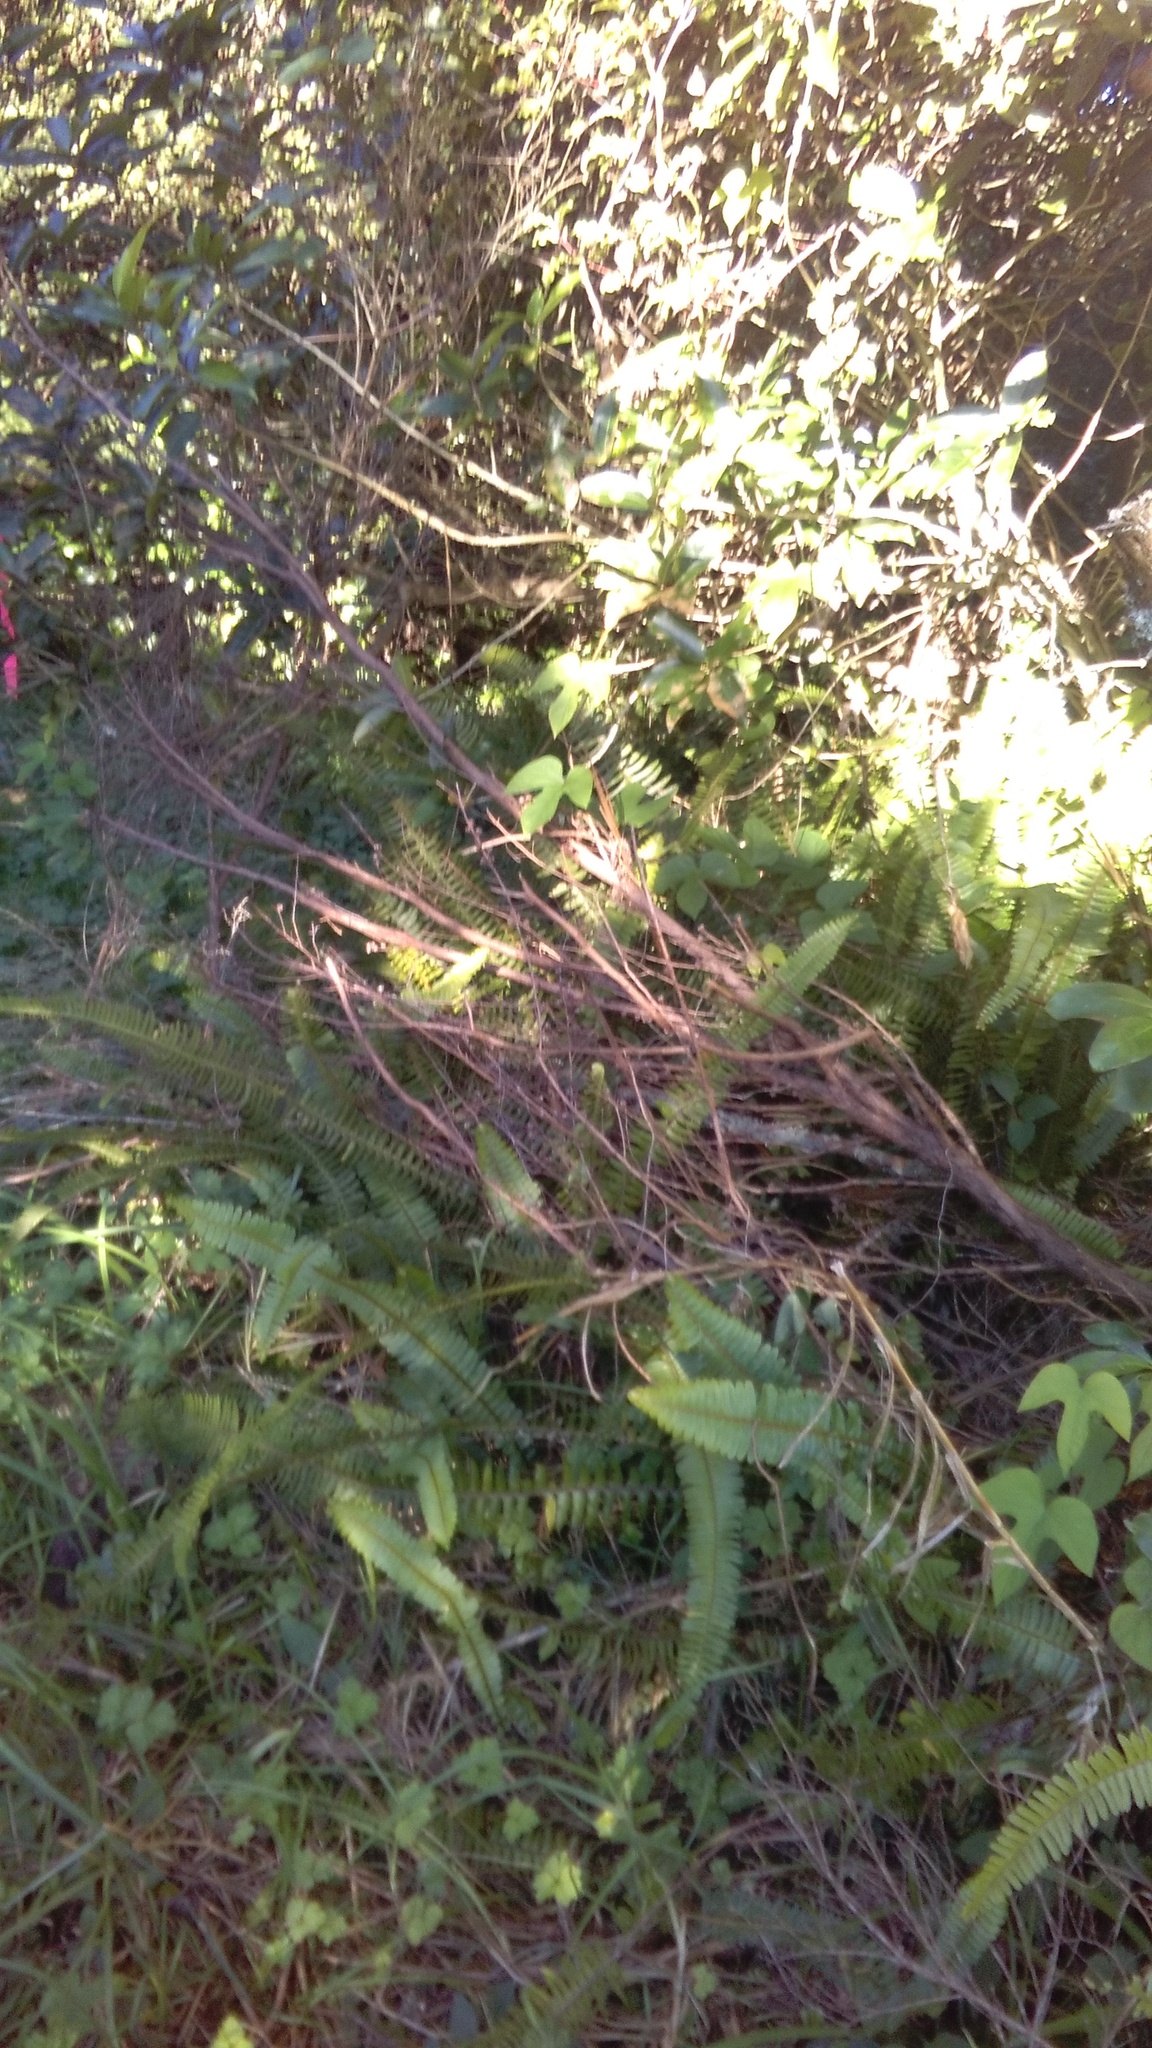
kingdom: Plantae
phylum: Tracheophyta
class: Polypodiopsida
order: Polypodiales
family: Nephrolepidaceae
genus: Nephrolepis
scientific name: Nephrolepis cordifolia
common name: Narrow swordfern
